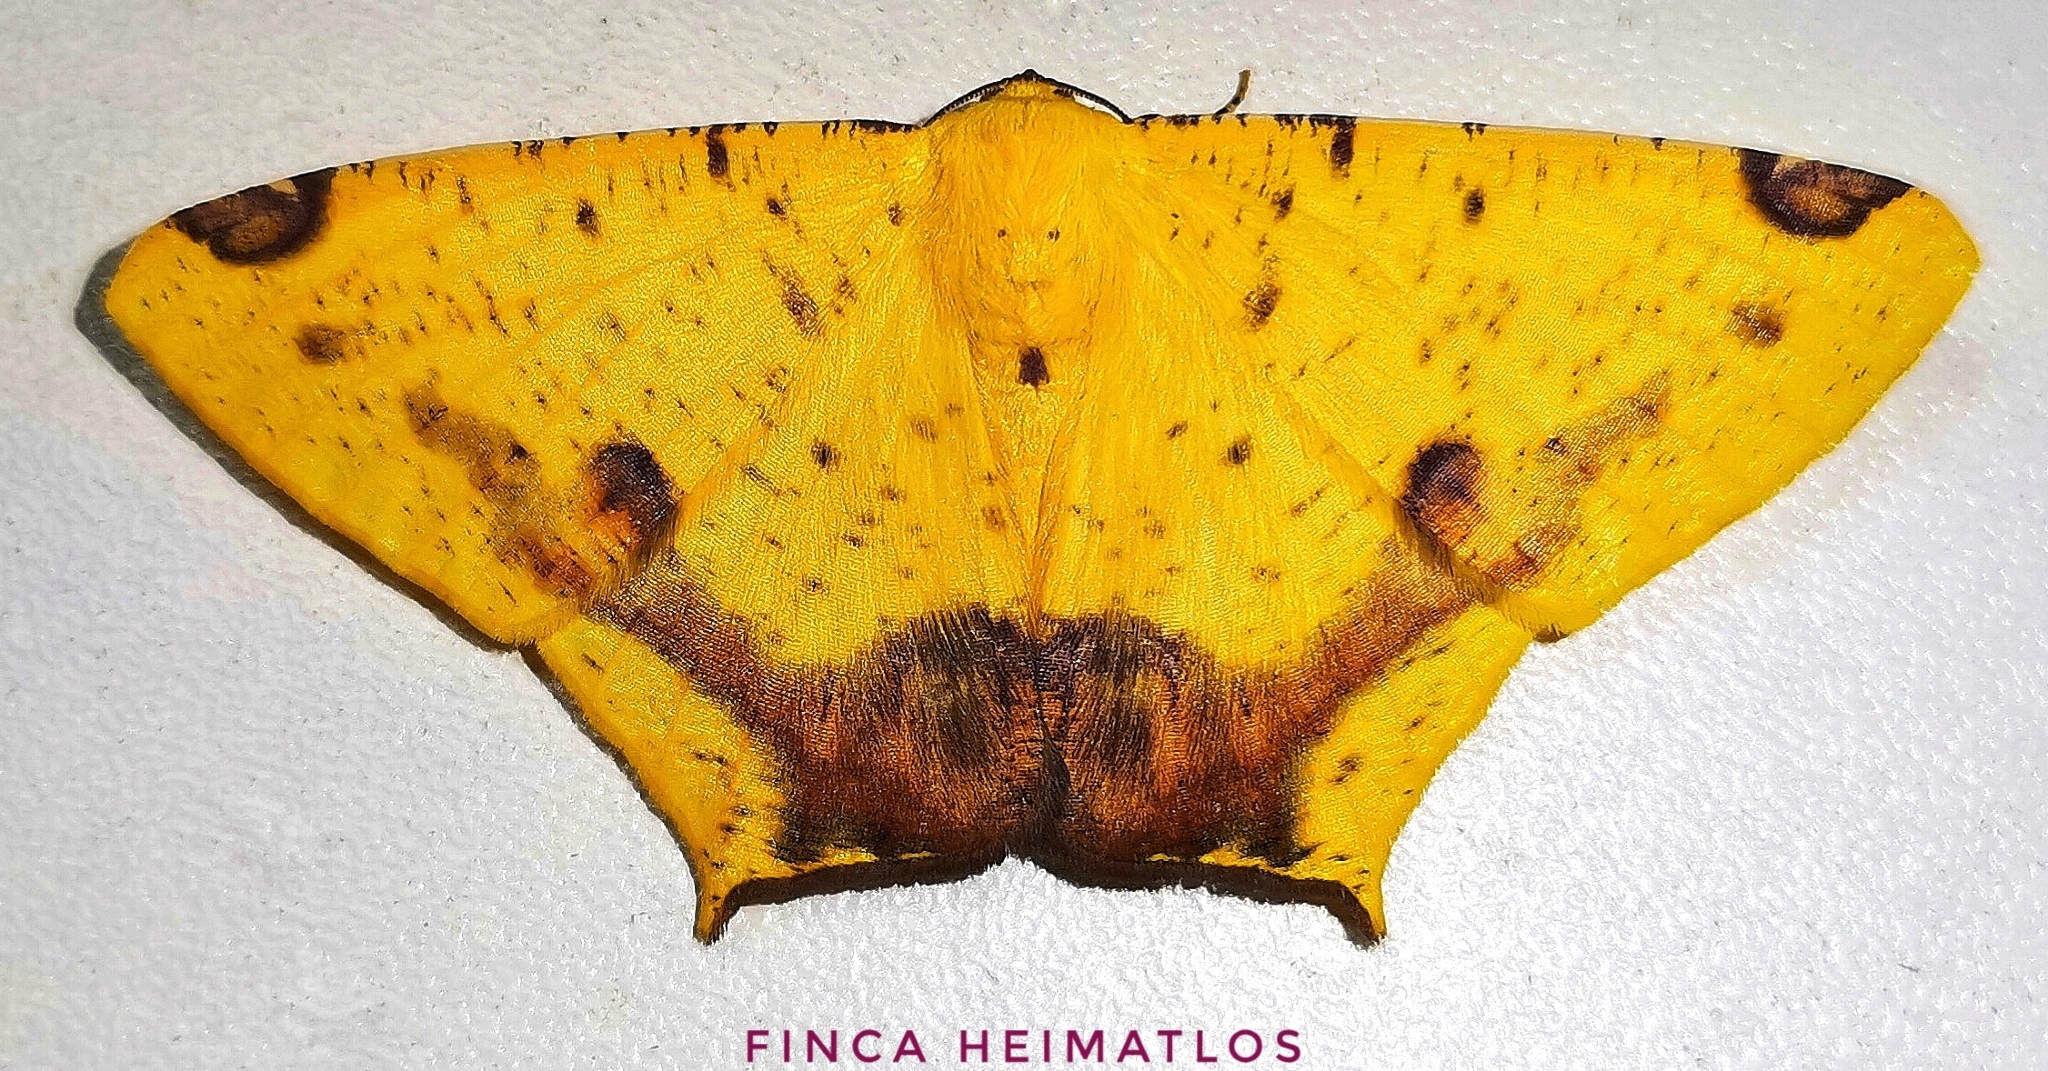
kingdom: Animalia
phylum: Arthropoda
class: Insecta
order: Lepidoptera
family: Geometridae
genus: Nepheloleuca
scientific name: Nepheloleuca politia
